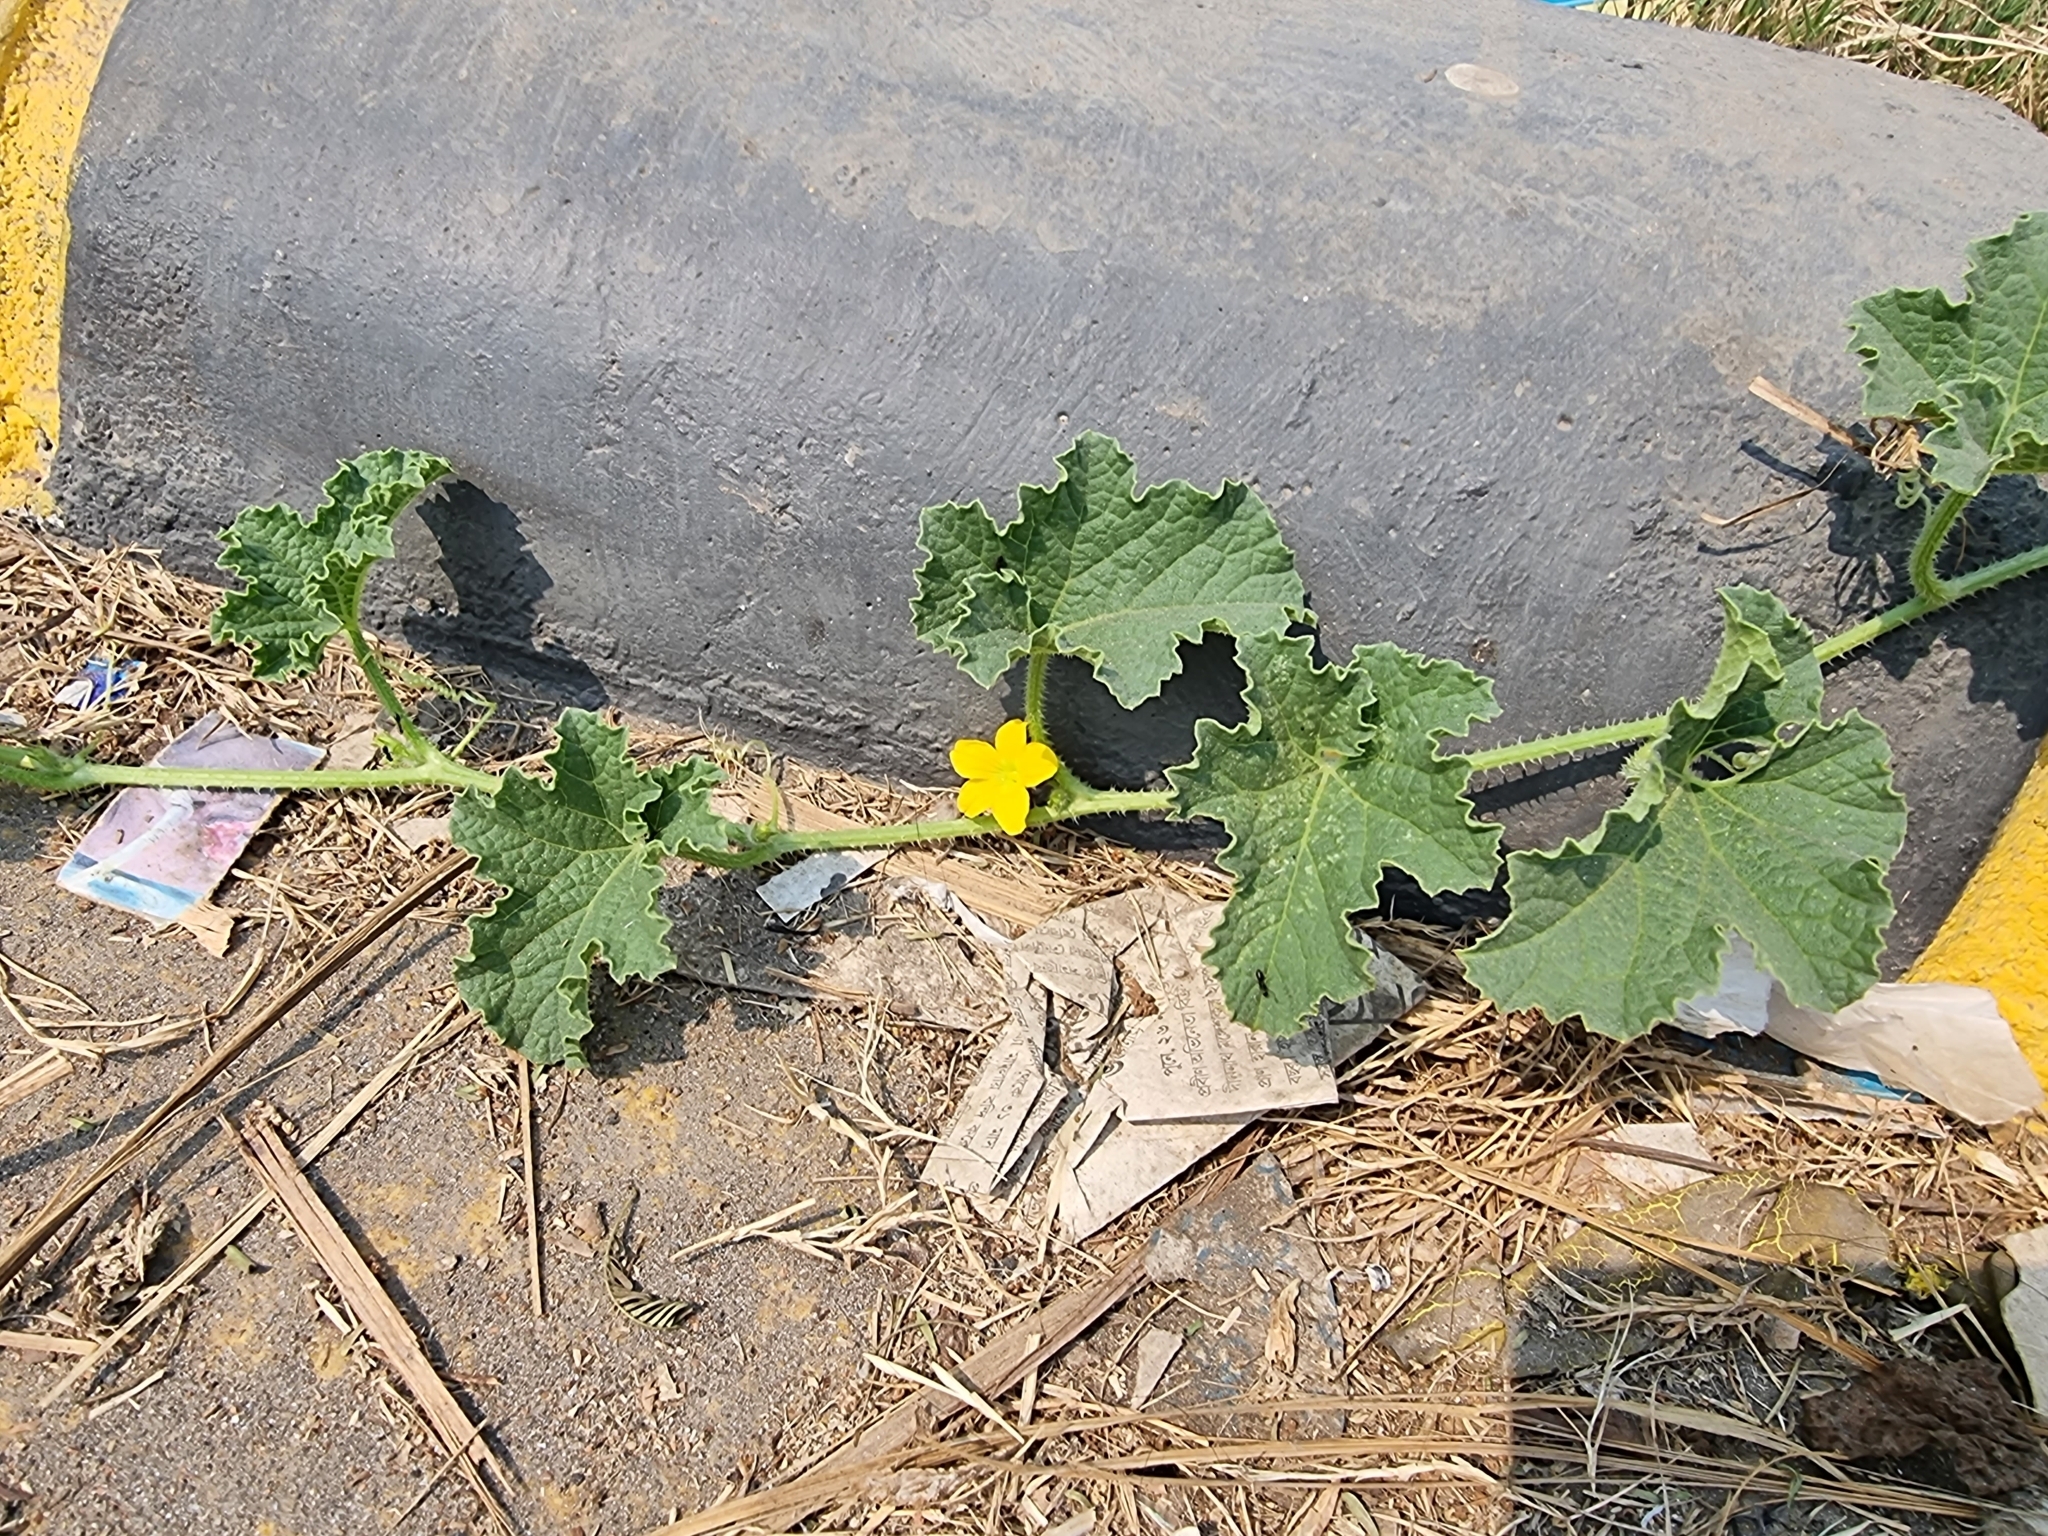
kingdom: Plantae
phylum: Tracheophyta
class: Magnoliopsida
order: Cucurbitales
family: Cucurbitaceae
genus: Cucumis
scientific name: Cucumis melo
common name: Melon
